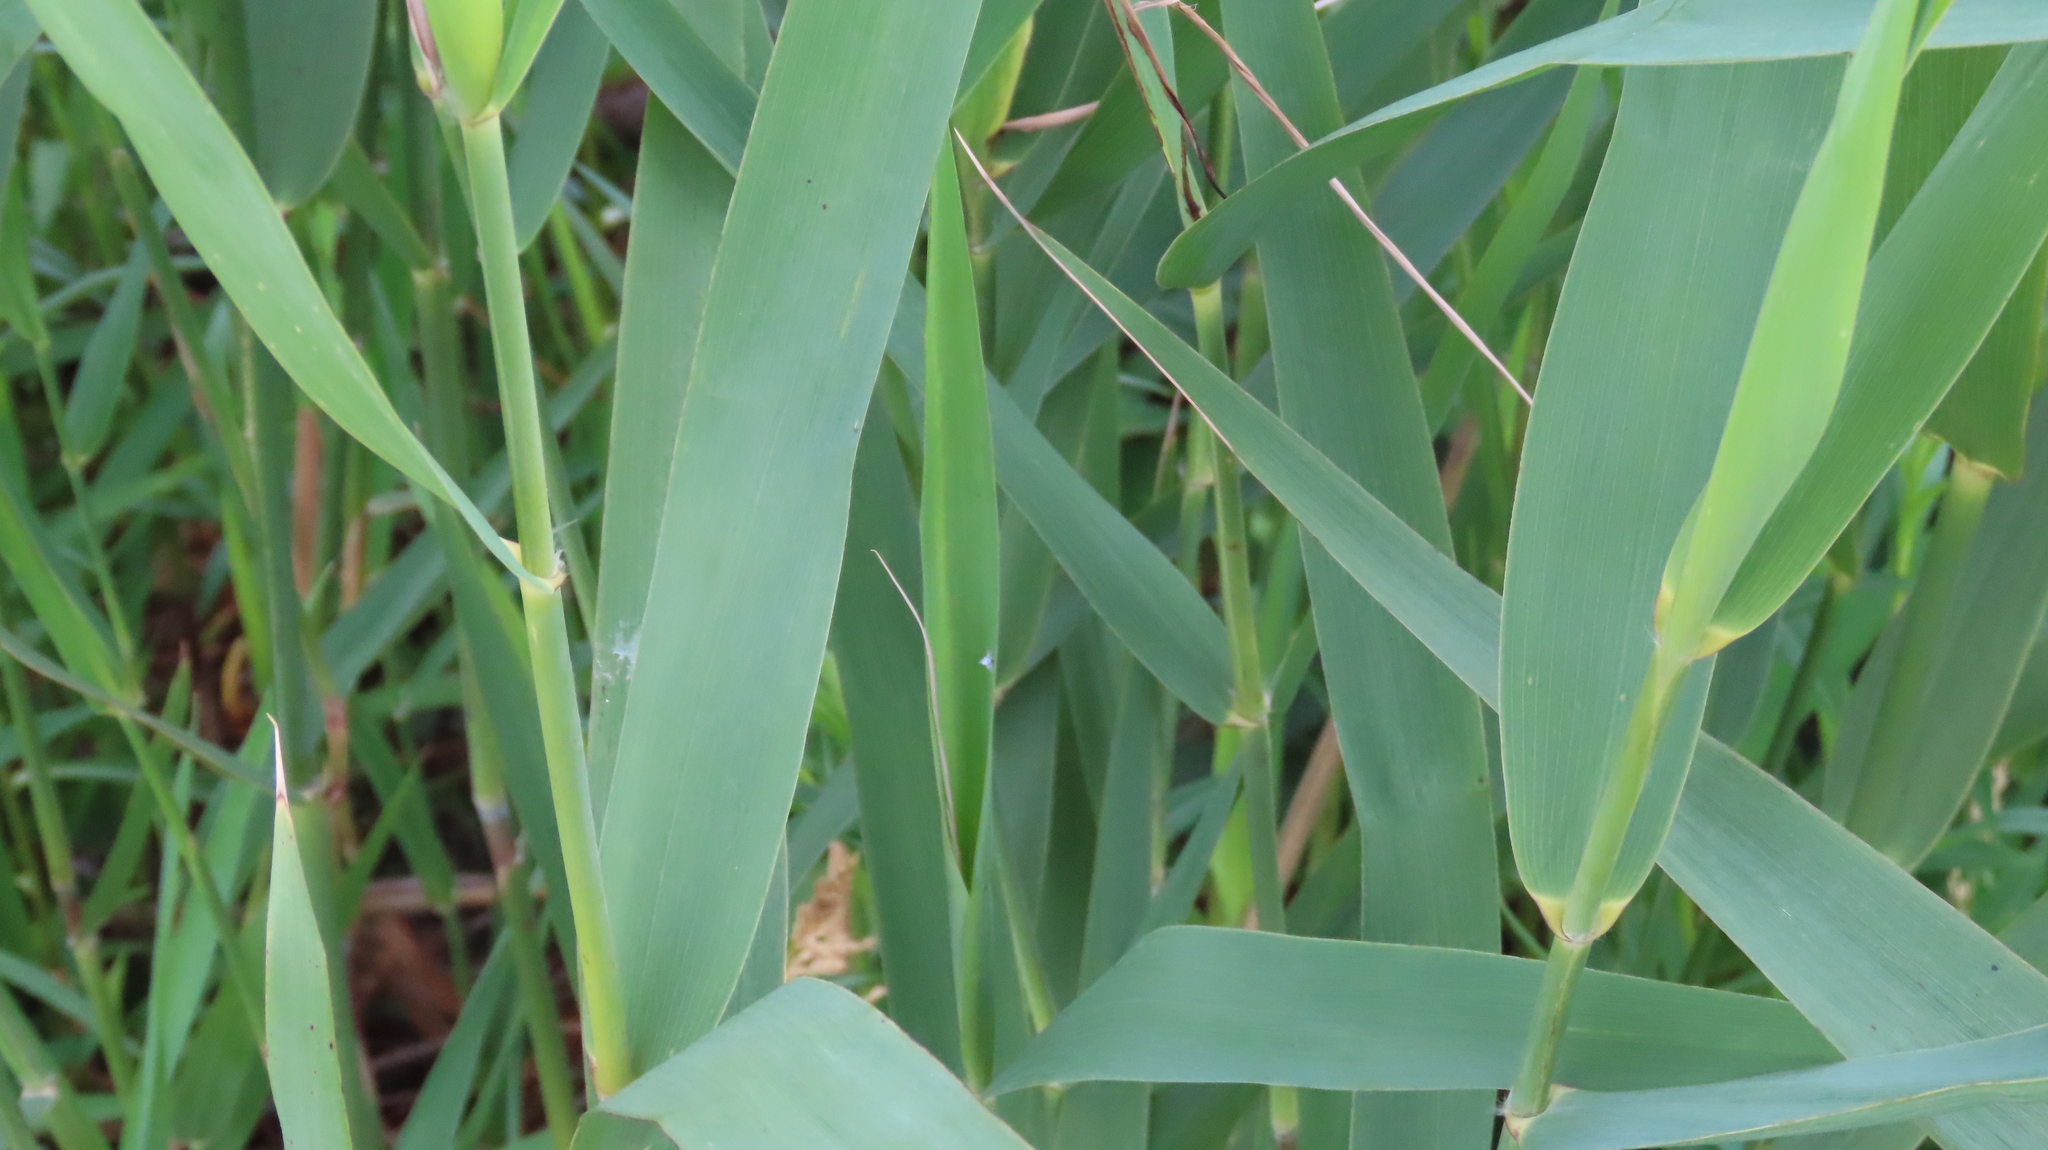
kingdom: Plantae
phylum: Tracheophyta
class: Liliopsida
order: Poales
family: Poaceae
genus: Phragmites
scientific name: Phragmites australis
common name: Common reed
